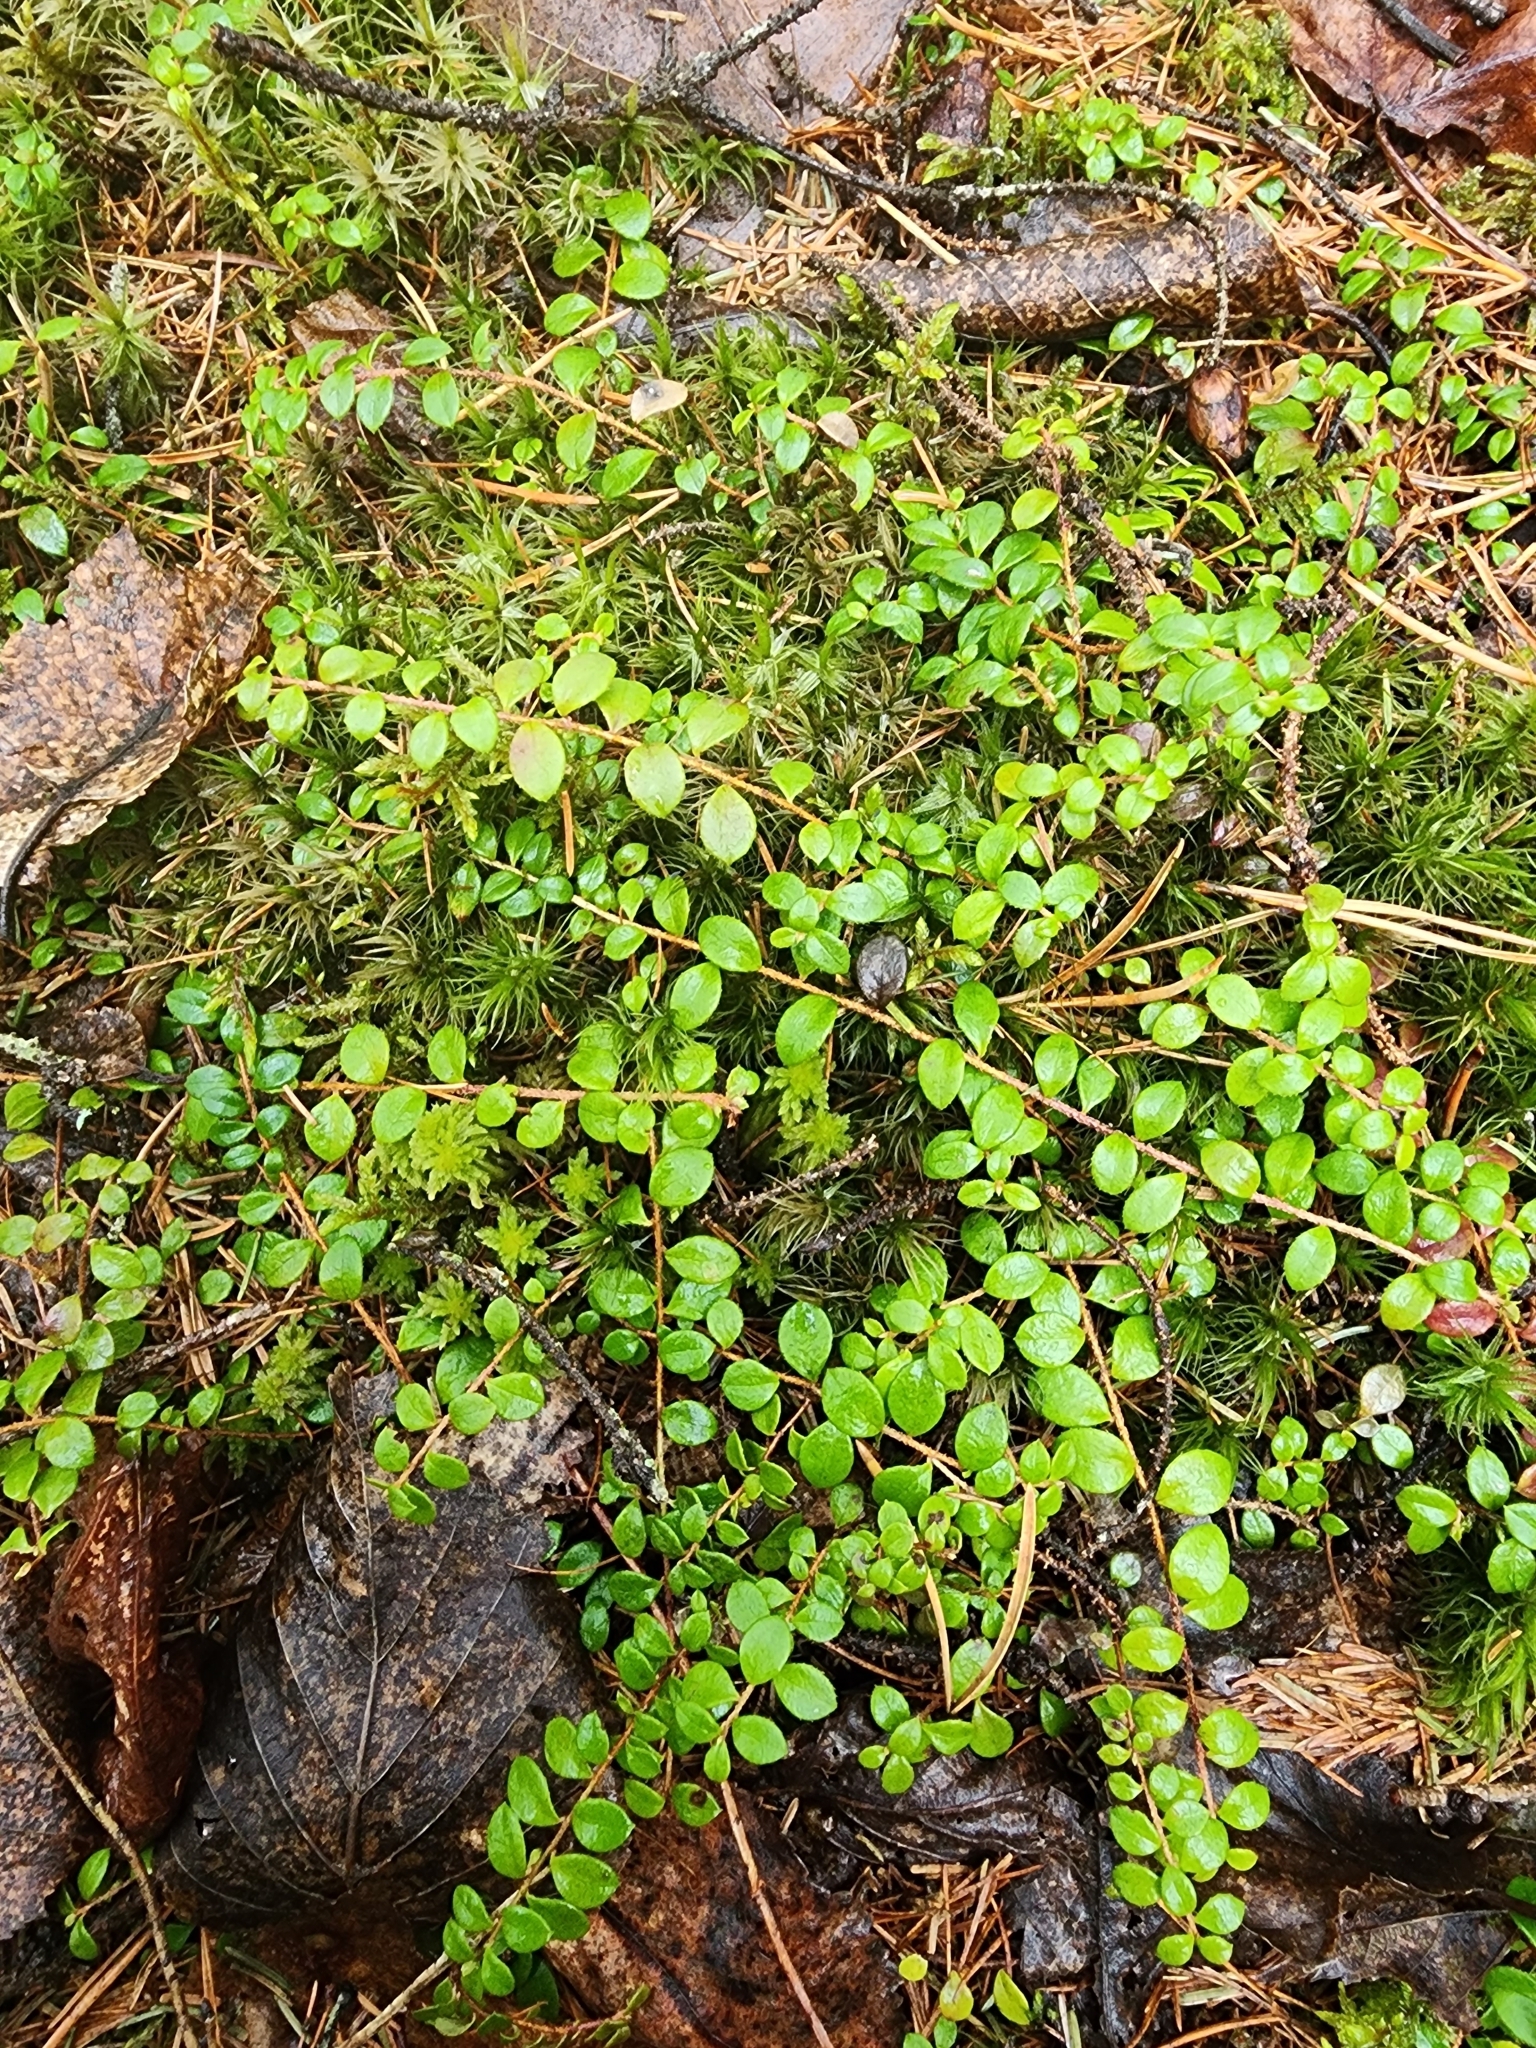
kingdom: Plantae
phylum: Tracheophyta
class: Magnoliopsida
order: Ericales
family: Ericaceae
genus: Gaultheria
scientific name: Gaultheria hispidula
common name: Cancer wintergreen
